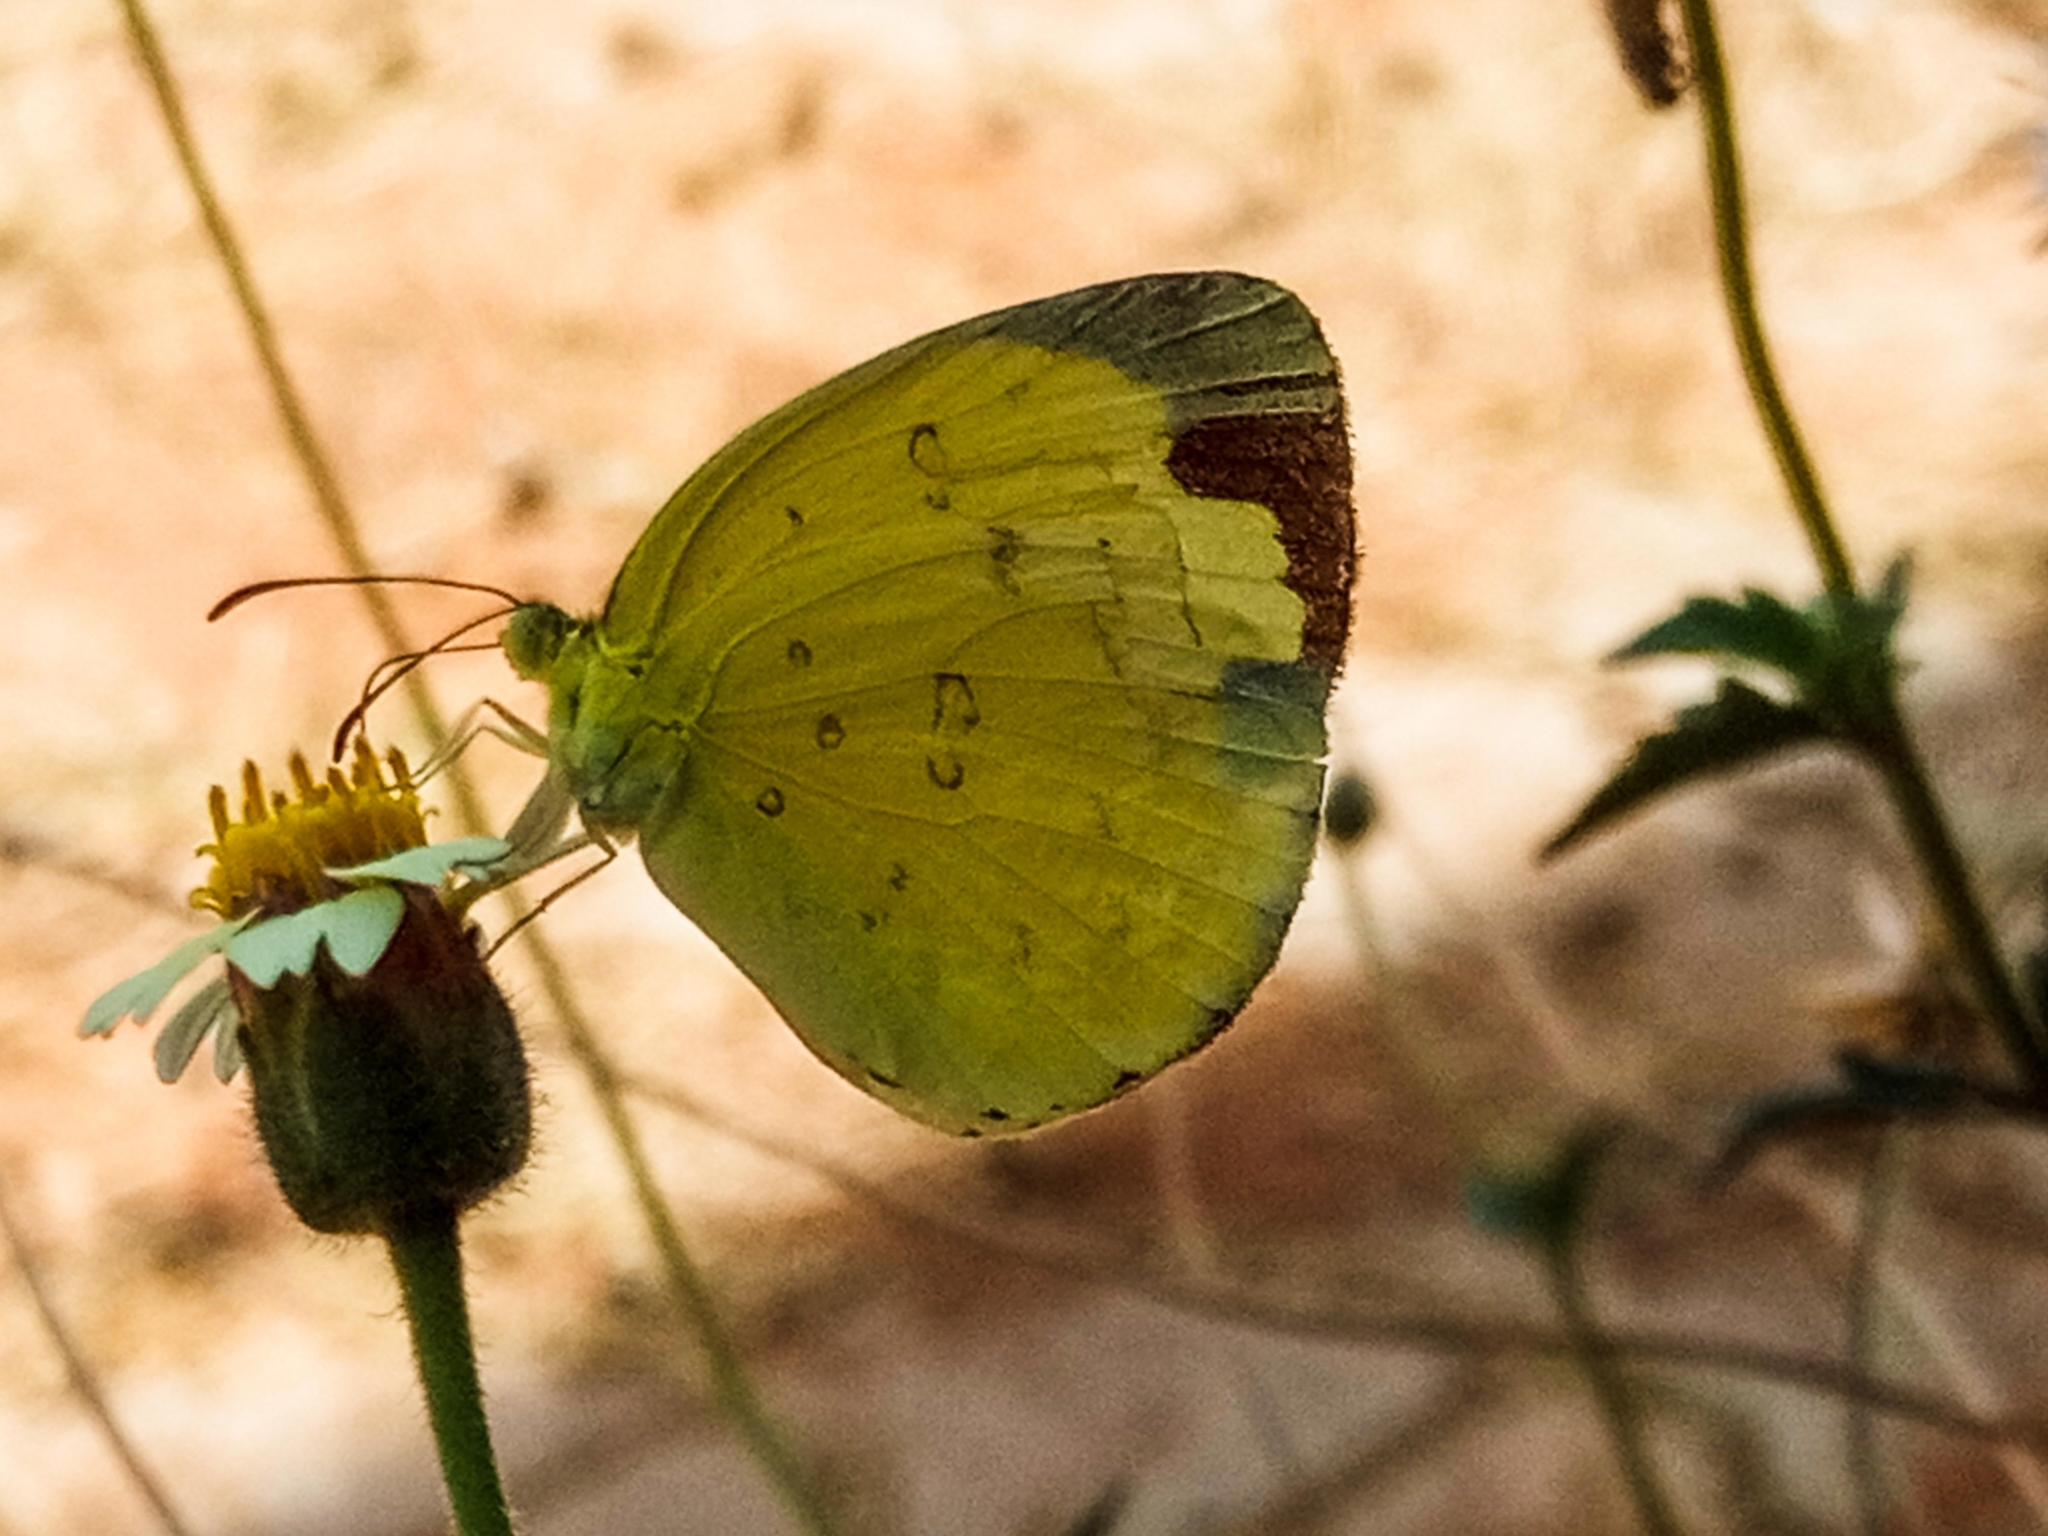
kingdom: Animalia
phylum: Arthropoda
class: Insecta
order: Lepidoptera
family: Pieridae
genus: Eurema
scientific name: Eurema hecabe
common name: Pale grass yellow
